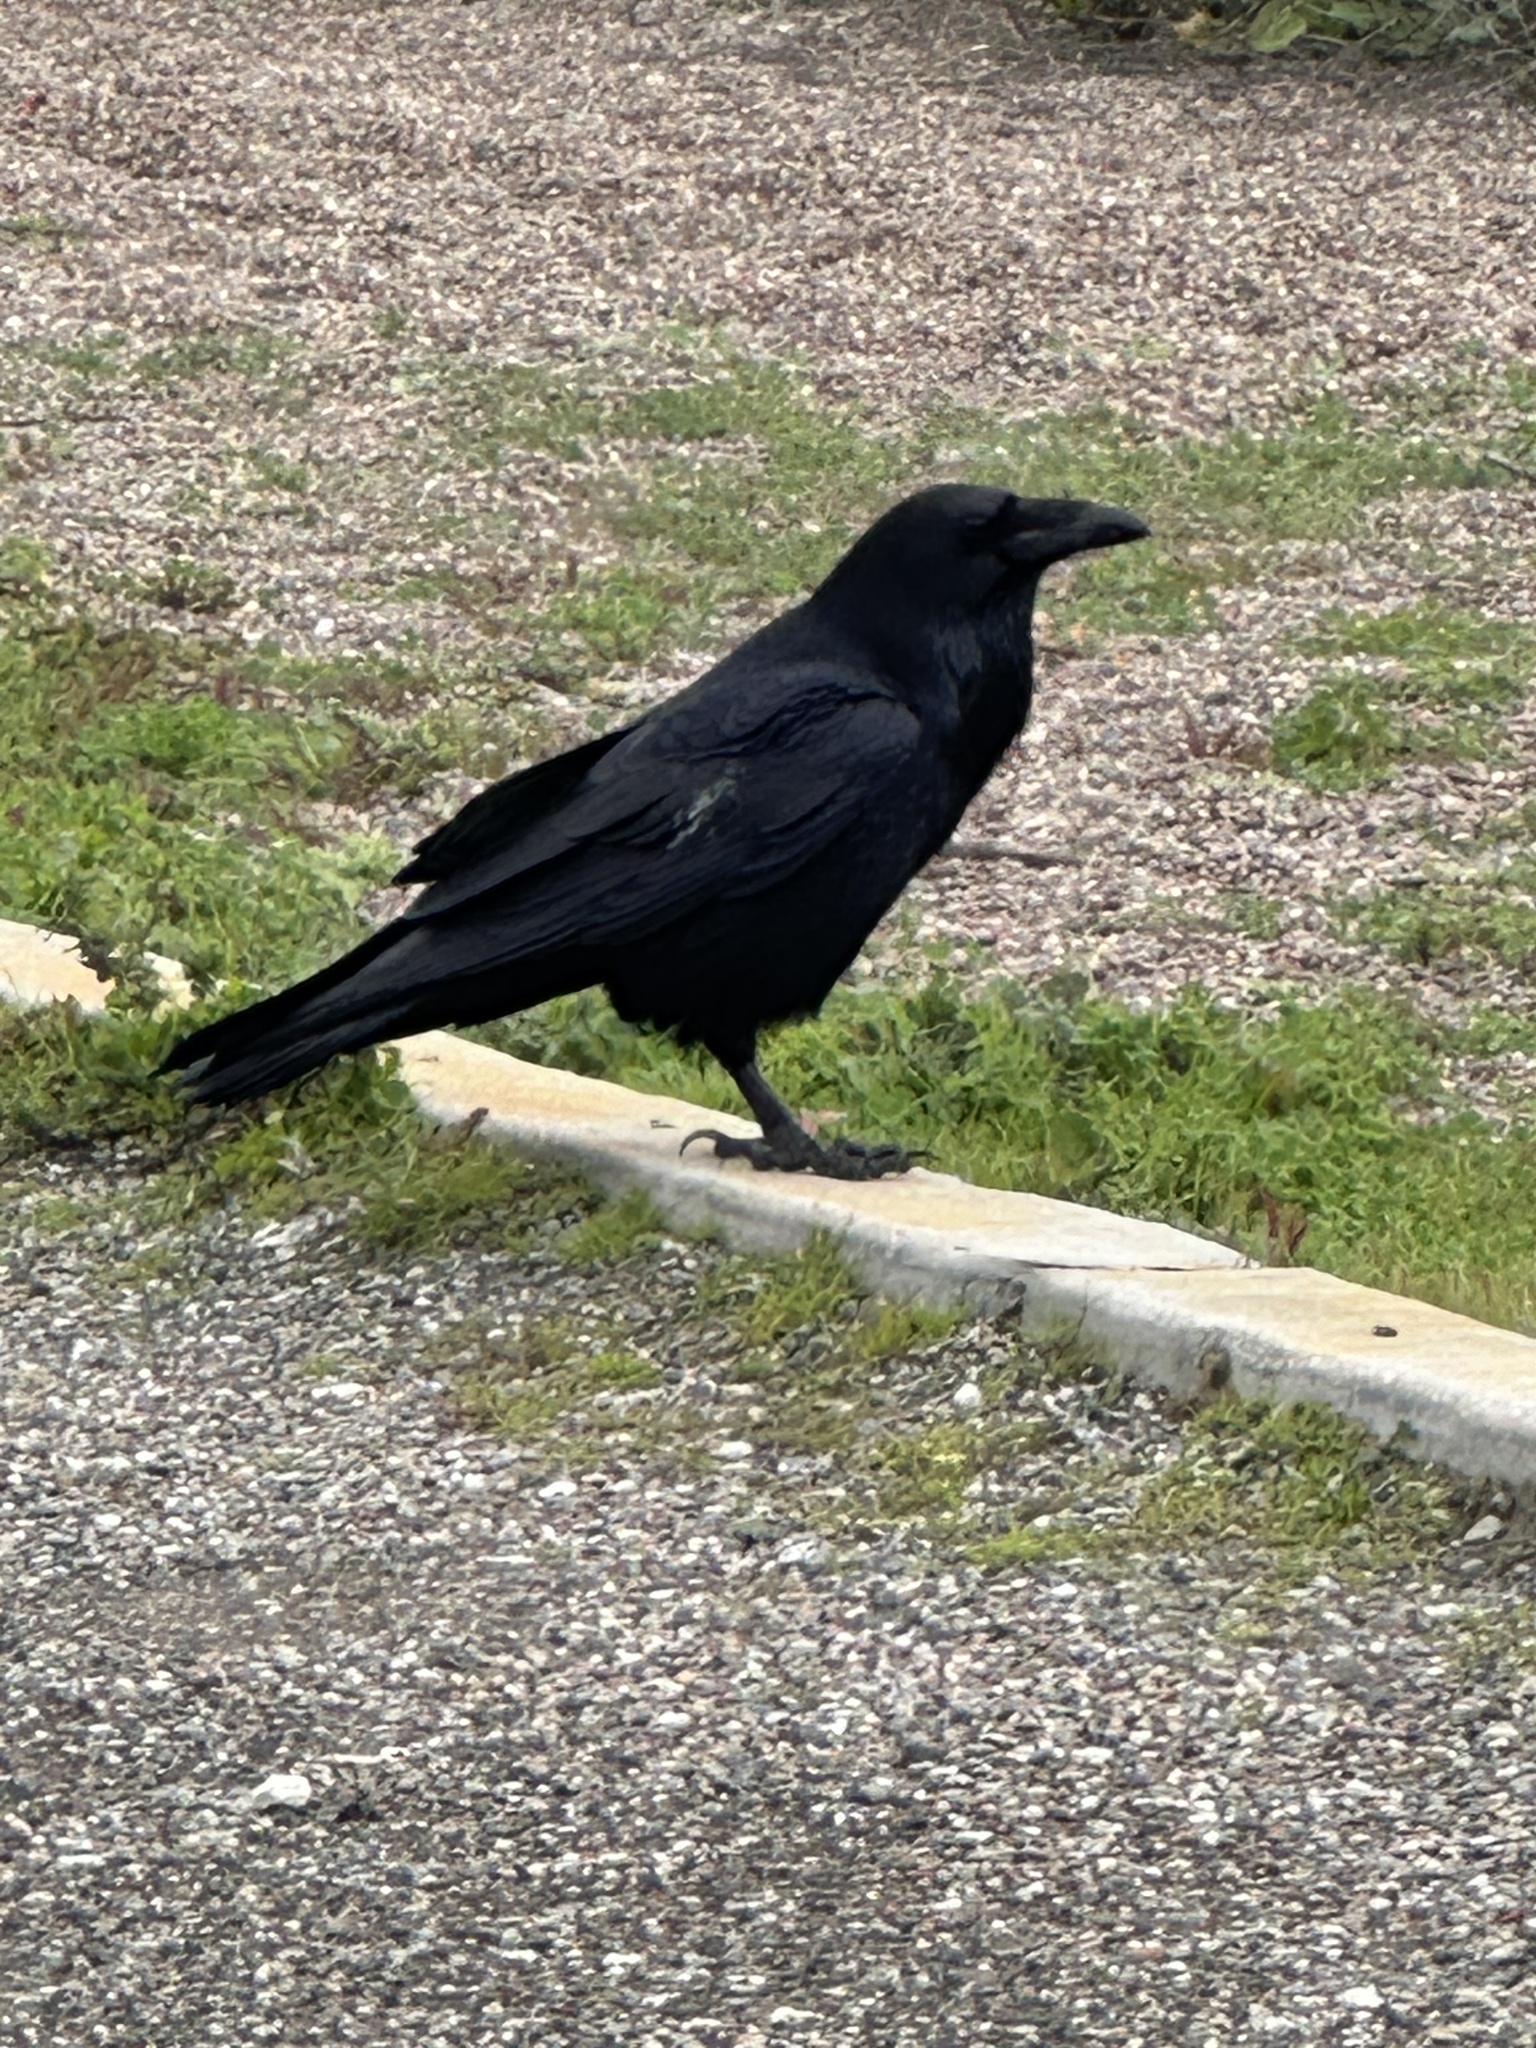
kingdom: Animalia
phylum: Chordata
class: Aves
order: Passeriformes
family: Corvidae
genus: Corvus
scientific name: Corvus corax
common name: Common raven
